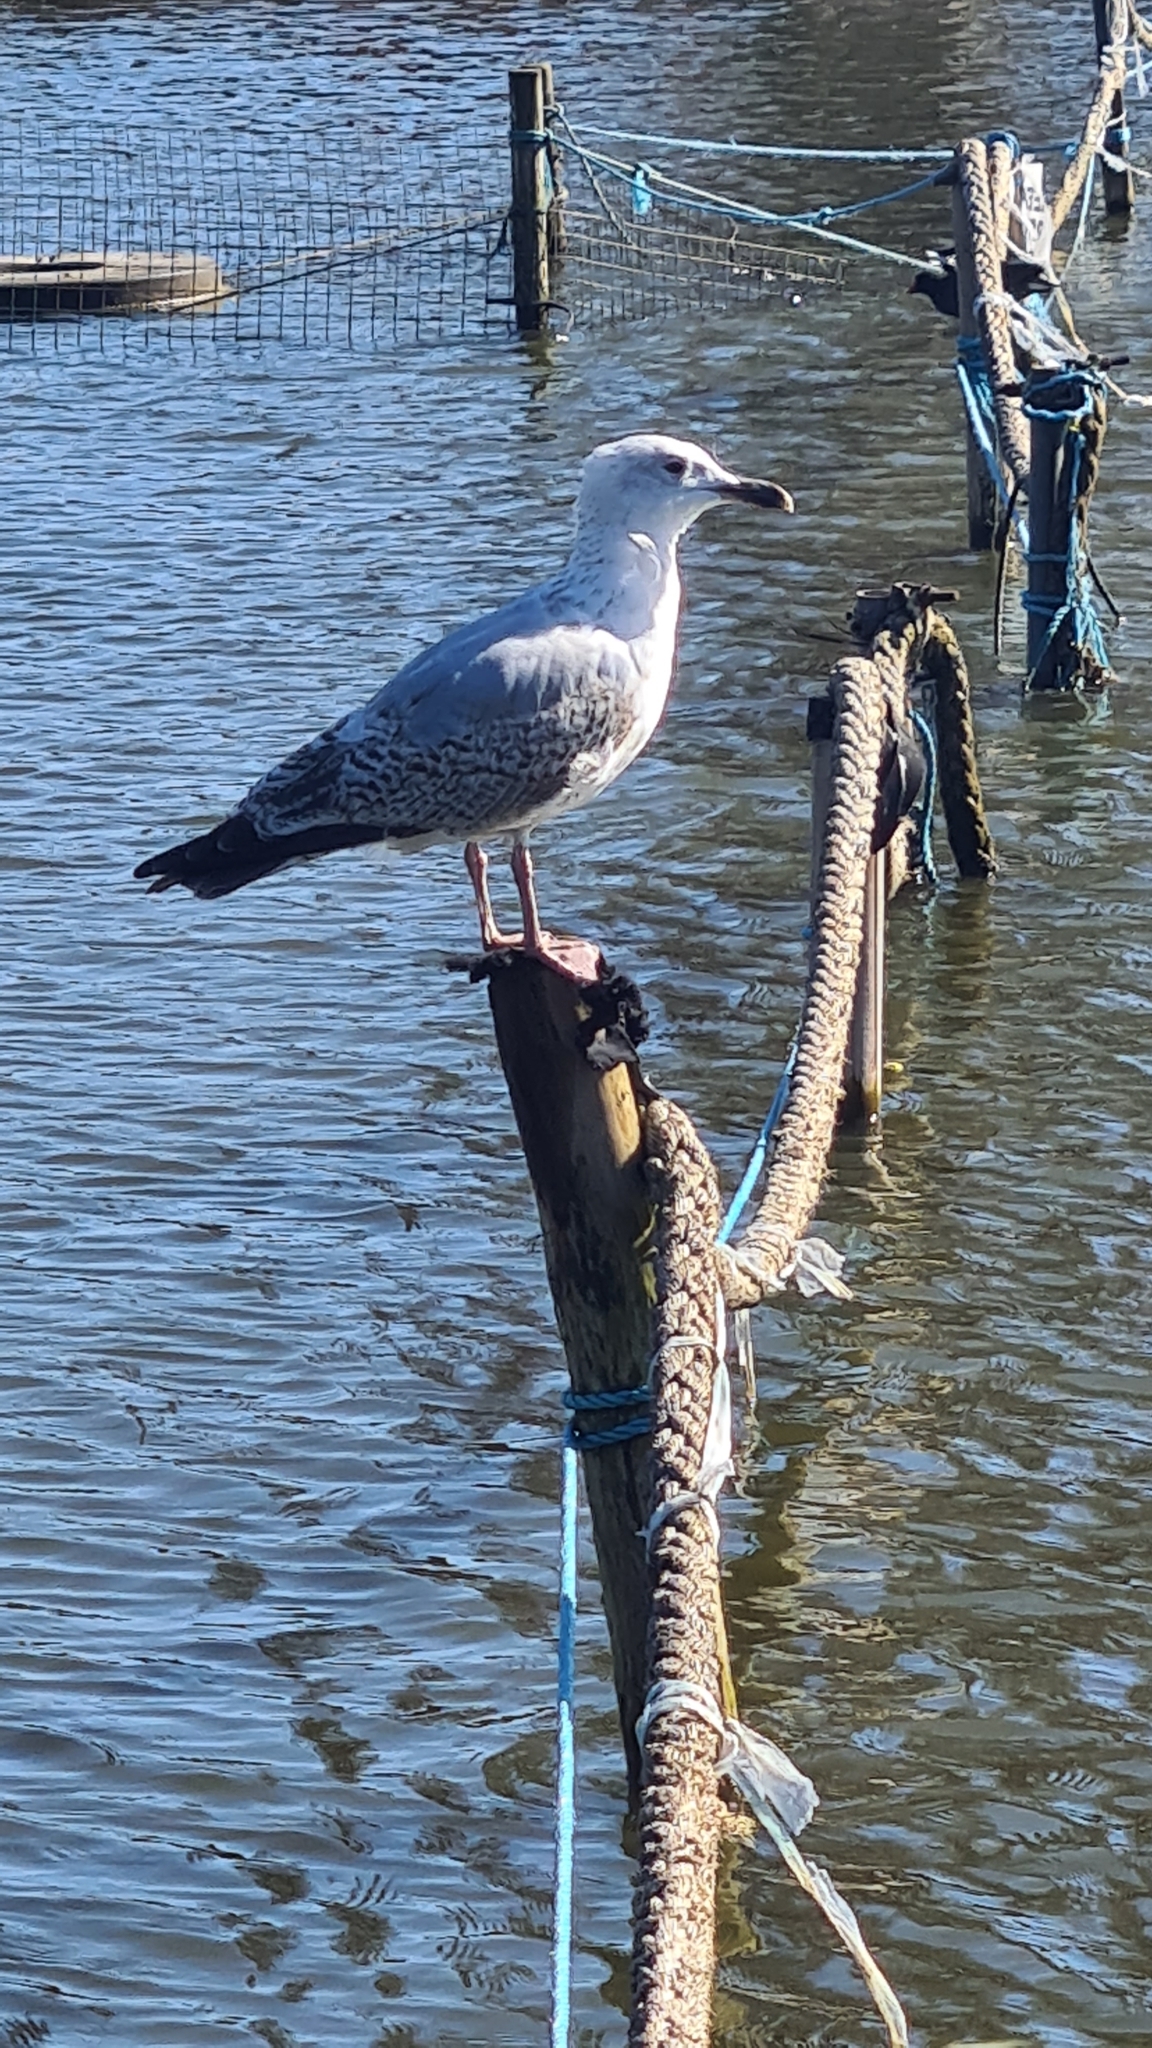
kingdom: Animalia
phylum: Chordata
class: Aves
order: Charadriiformes
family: Laridae
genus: Larus
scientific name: Larus argentatus
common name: Herring gull
